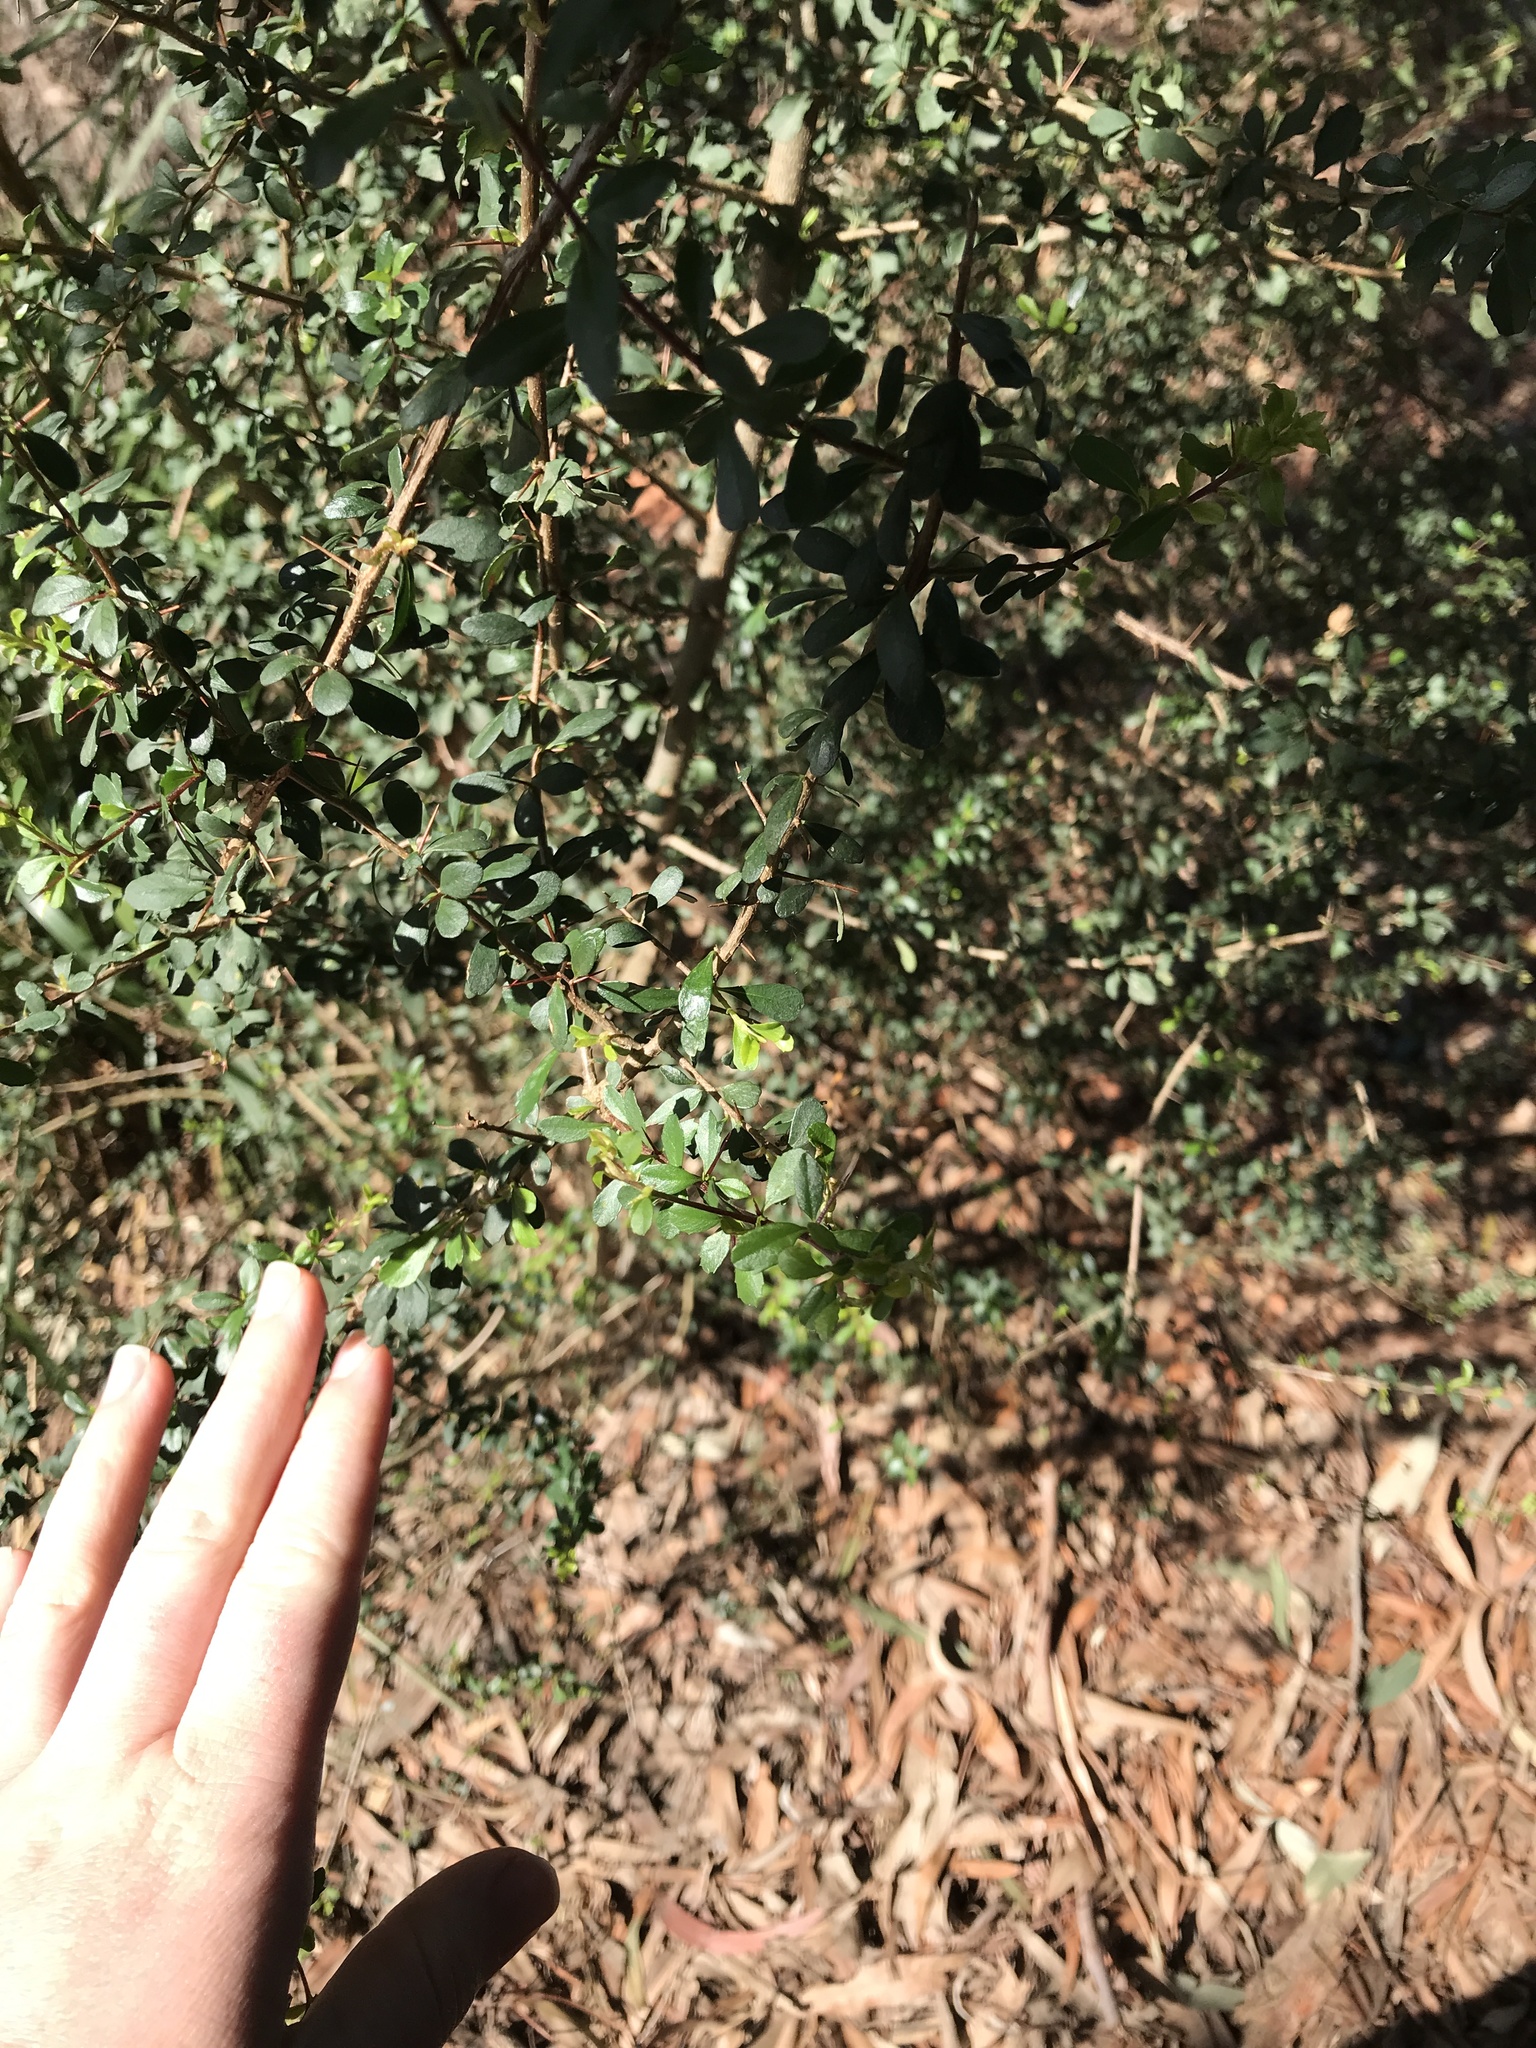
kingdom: Plantae
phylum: Tracheophyta
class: Magnoliopsida
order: Apiales
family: Pittosporaceae
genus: Bursaria
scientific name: Bursaria spinosa
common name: Australian blackthorn
